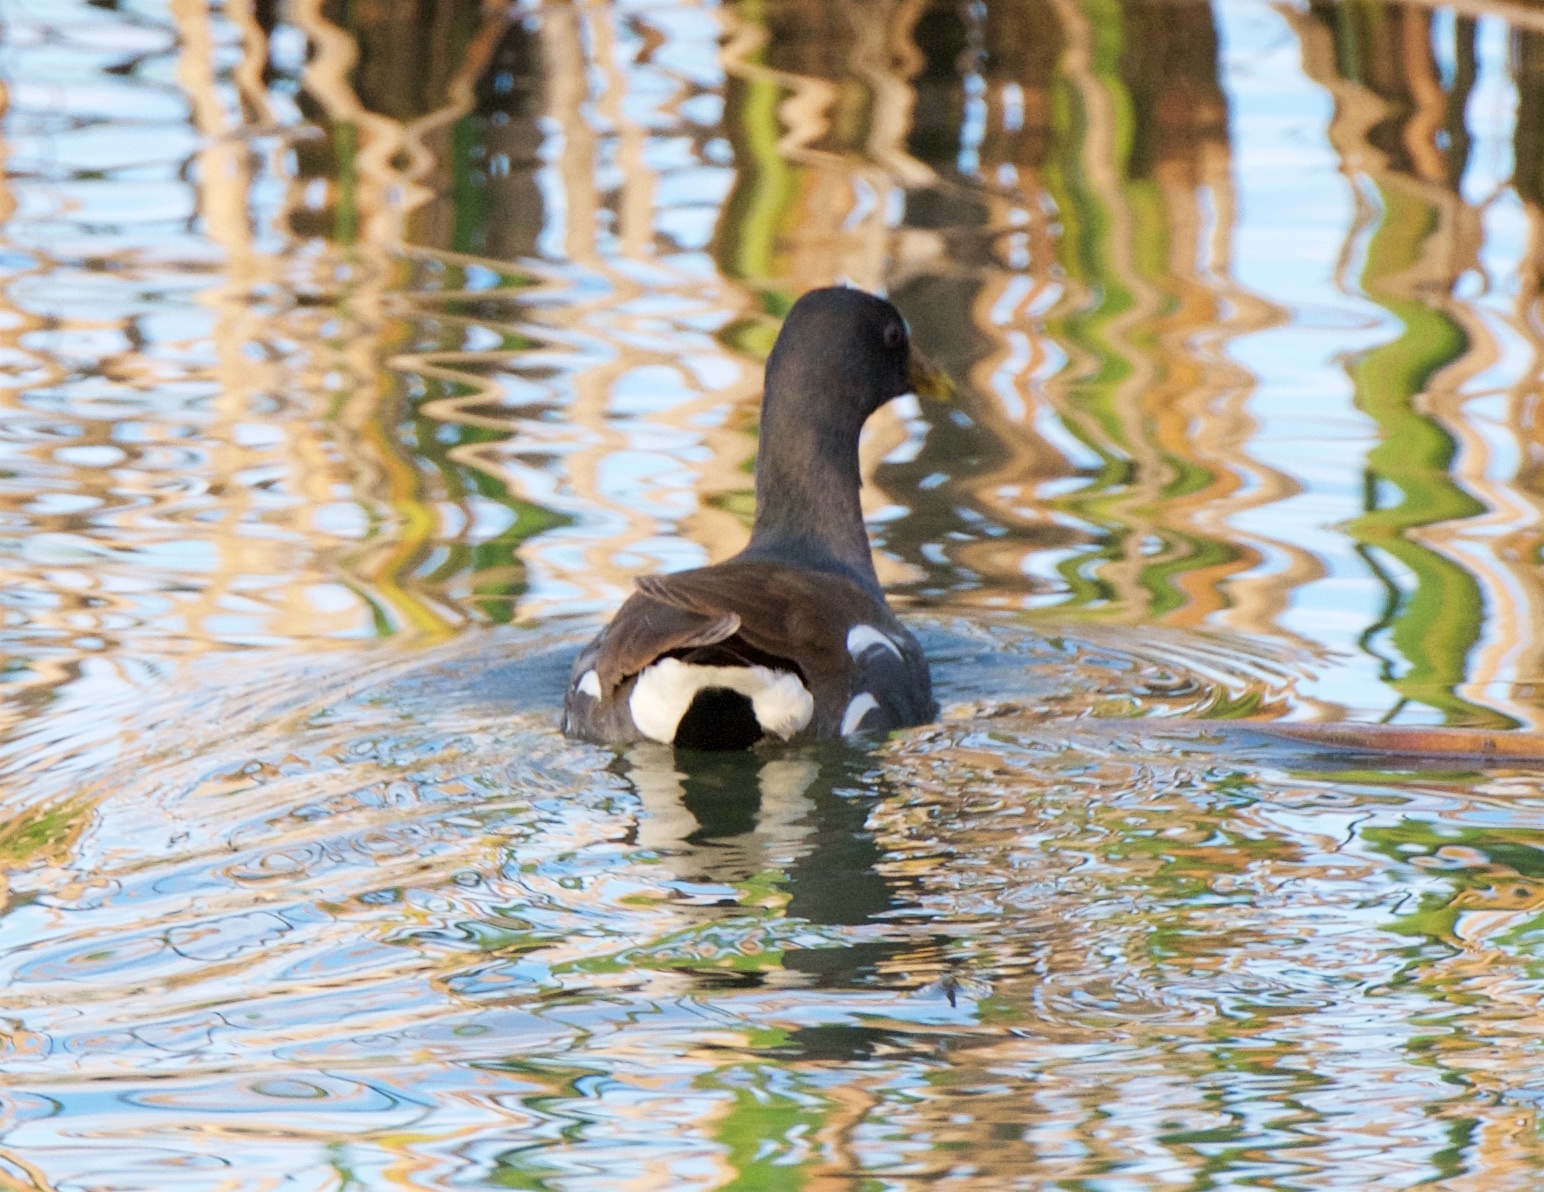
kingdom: Animalia
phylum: Chordata
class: Aves
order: Gruiformes
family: Rallidae
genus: Gallinula
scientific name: Gallinula chloropus
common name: Common moorhen
